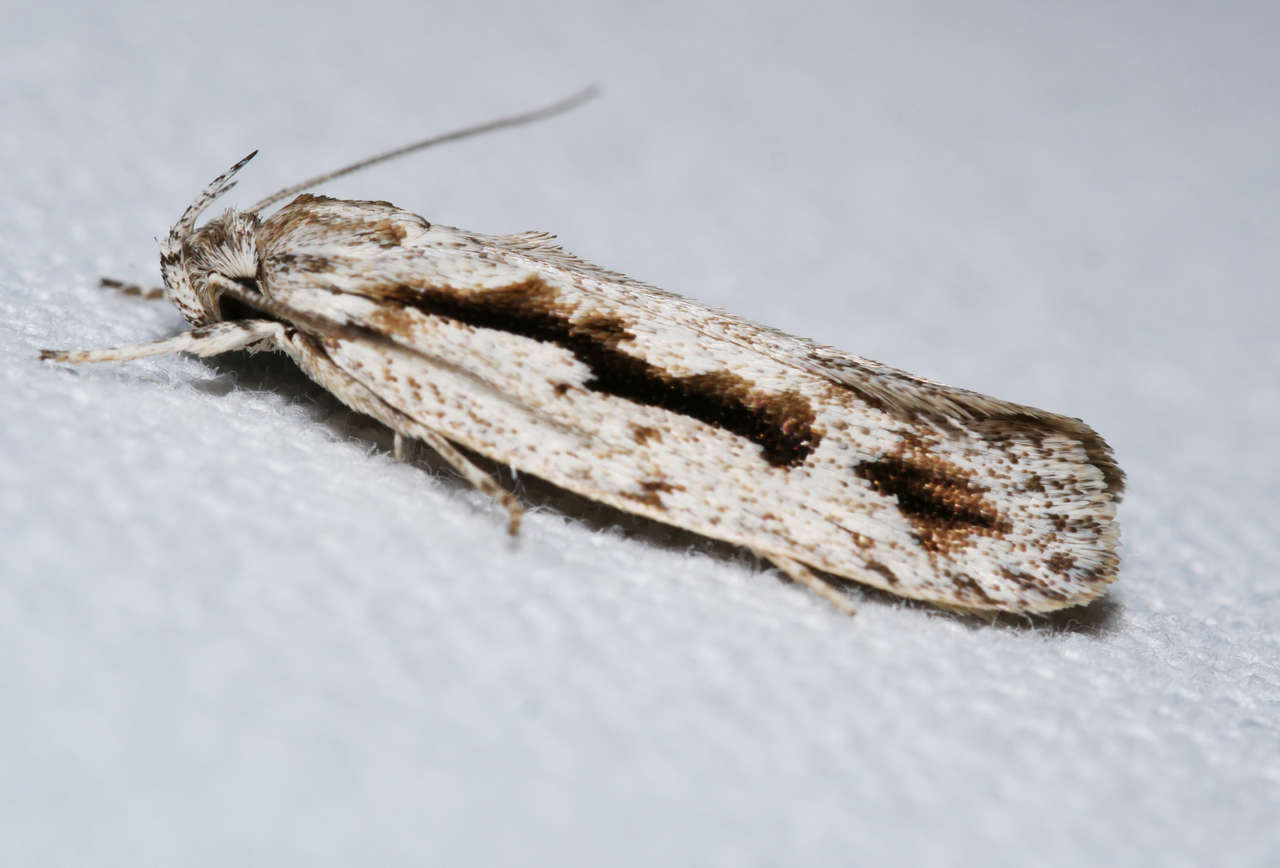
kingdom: Animalia
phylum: Arthropoda
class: Insecta
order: Lepidoptera
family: Oecophoridae
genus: Eulechria
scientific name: Eulechria xeropterella
